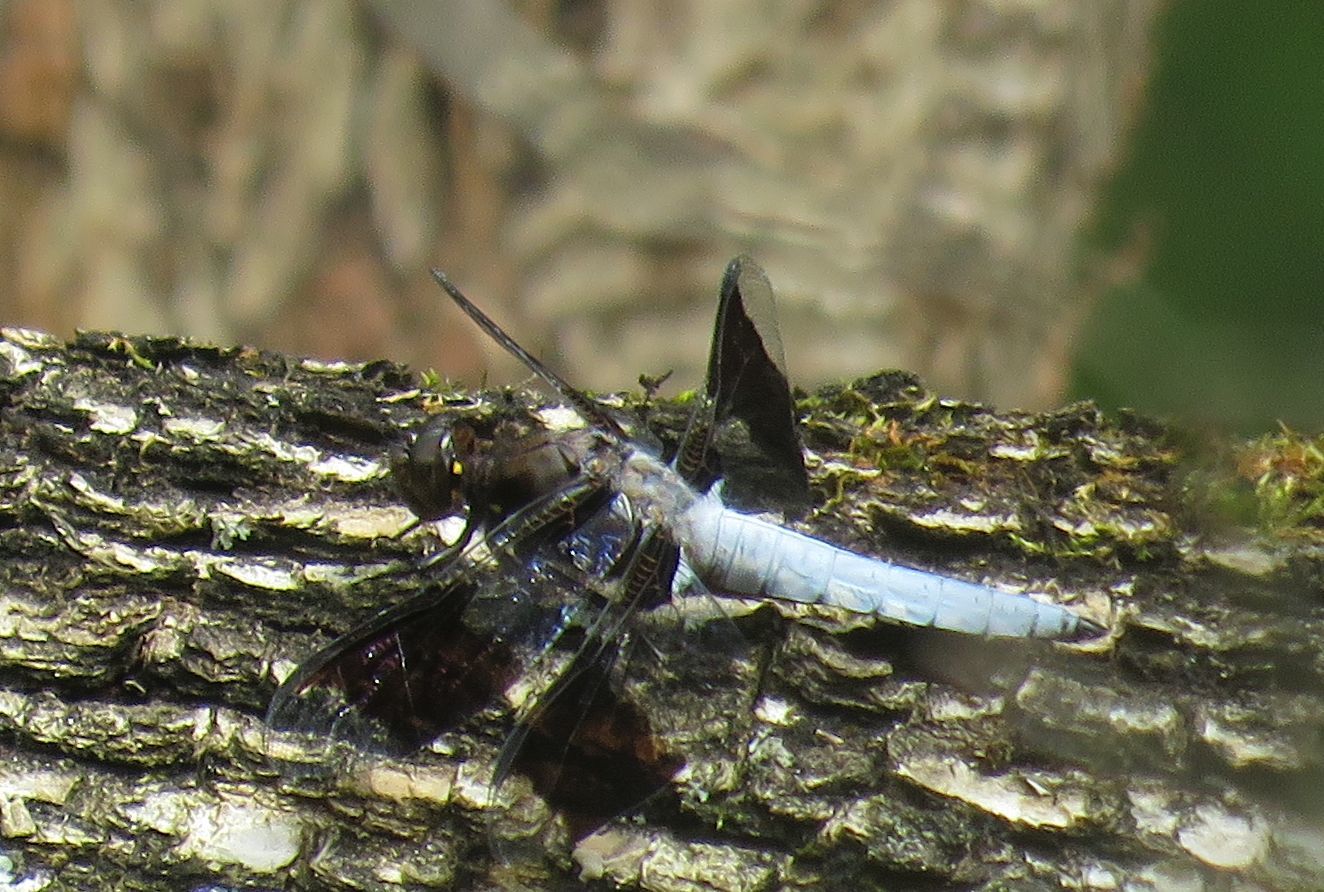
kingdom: Animalia
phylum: Arthropoda
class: Insecta
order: Odonata
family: Libellulidae
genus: Plathemis
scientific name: Plathemis lydia
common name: Common whitetail
